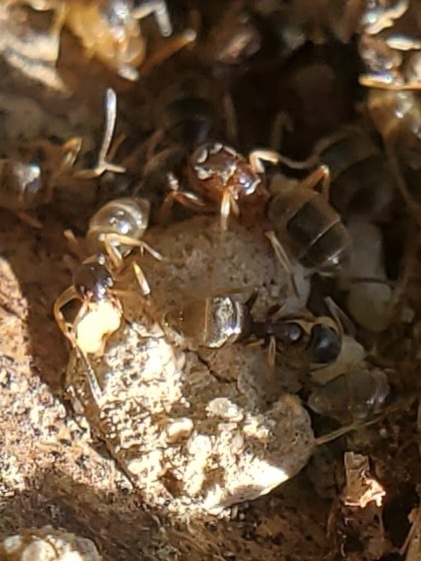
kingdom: Animalia
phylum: Arthropoda
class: Insecta
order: Hymenoptera
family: Formicidae
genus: Tapinoma
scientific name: Tapinoma sessile
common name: Odorous house ant
